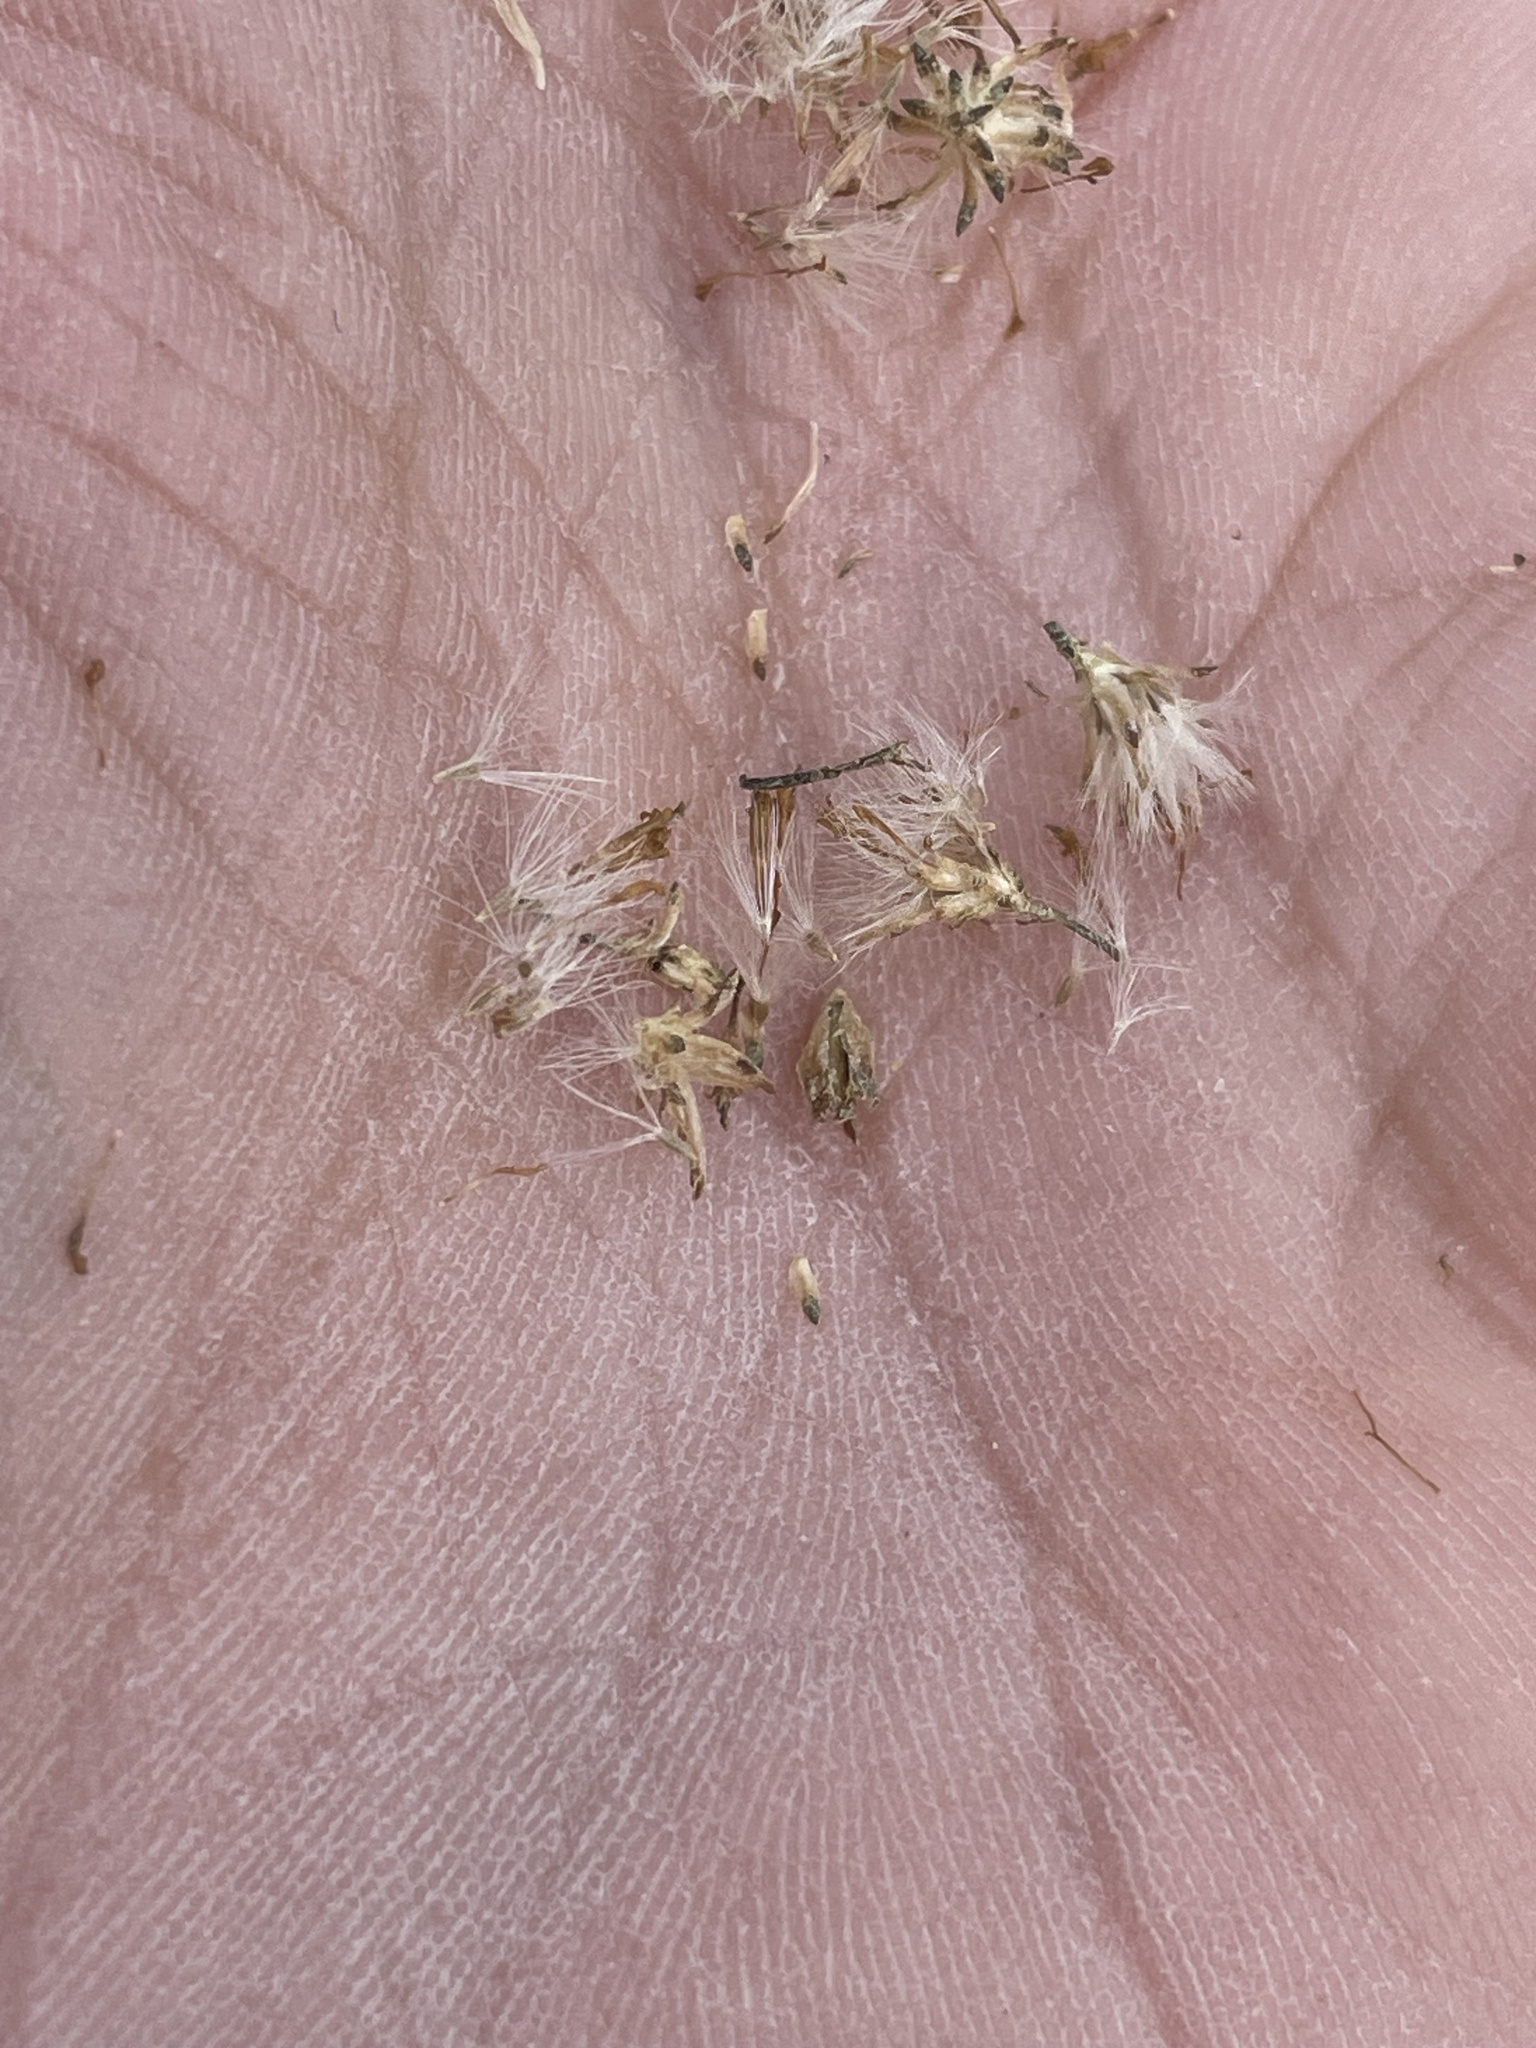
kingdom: Plantae
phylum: Tracheophyta
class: Magnoliopsida
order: Asterales
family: Asteraceae
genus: Euthamia
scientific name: Euthamia caroliniana
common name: Coastal plain goldentop
